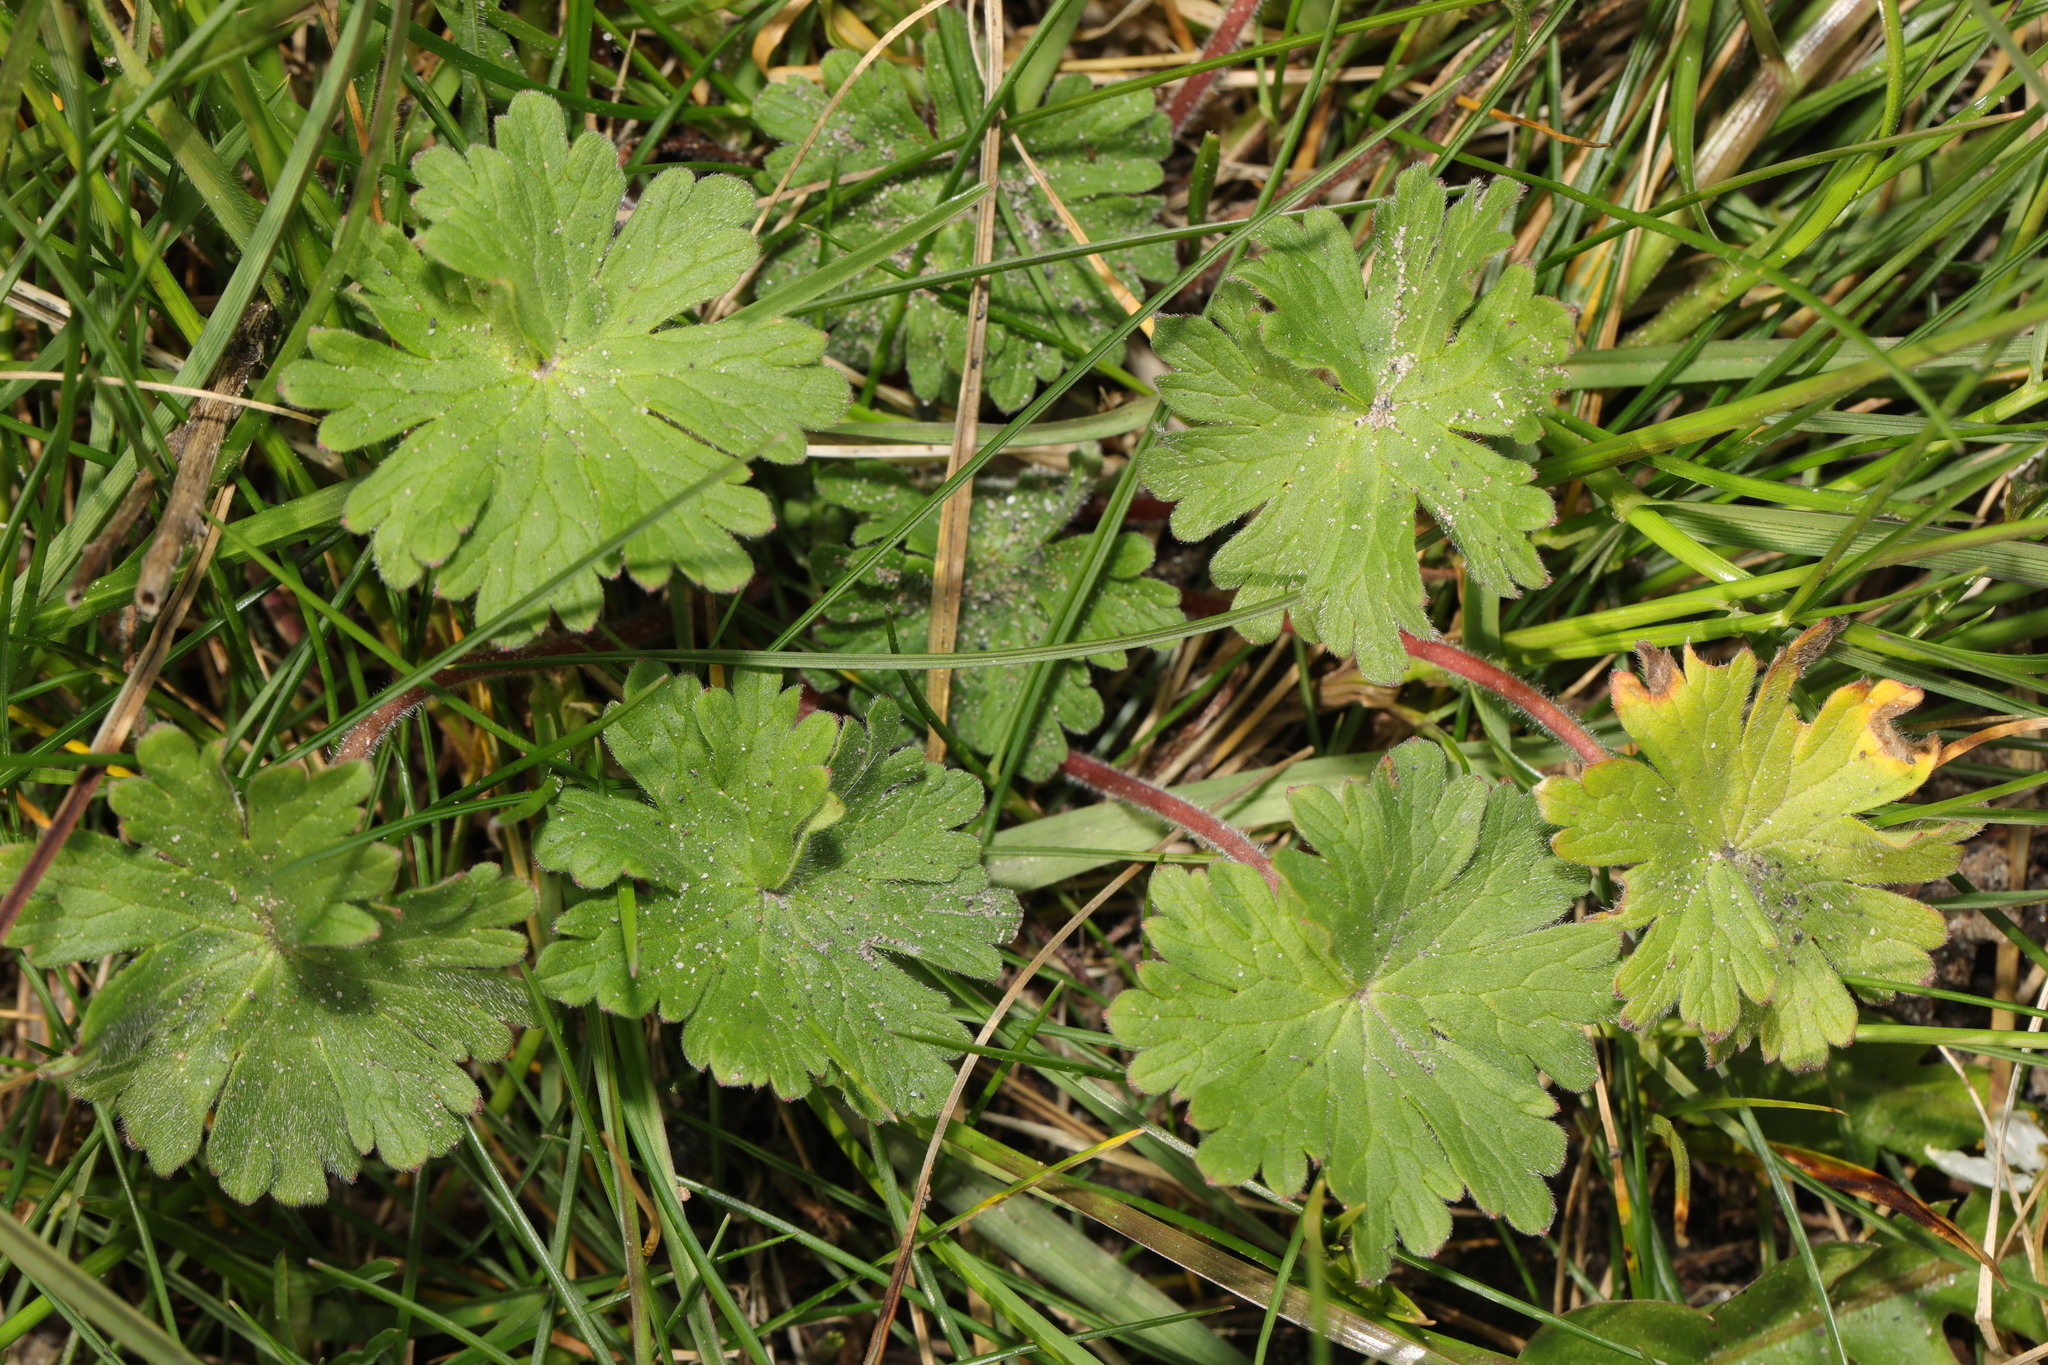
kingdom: Plantae
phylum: Tracheophyta
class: Magnoliopsida
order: Geraniales
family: Geraniaceae
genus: Geranium
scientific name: Geranium molle
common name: Dove's-foot crane's-bill
